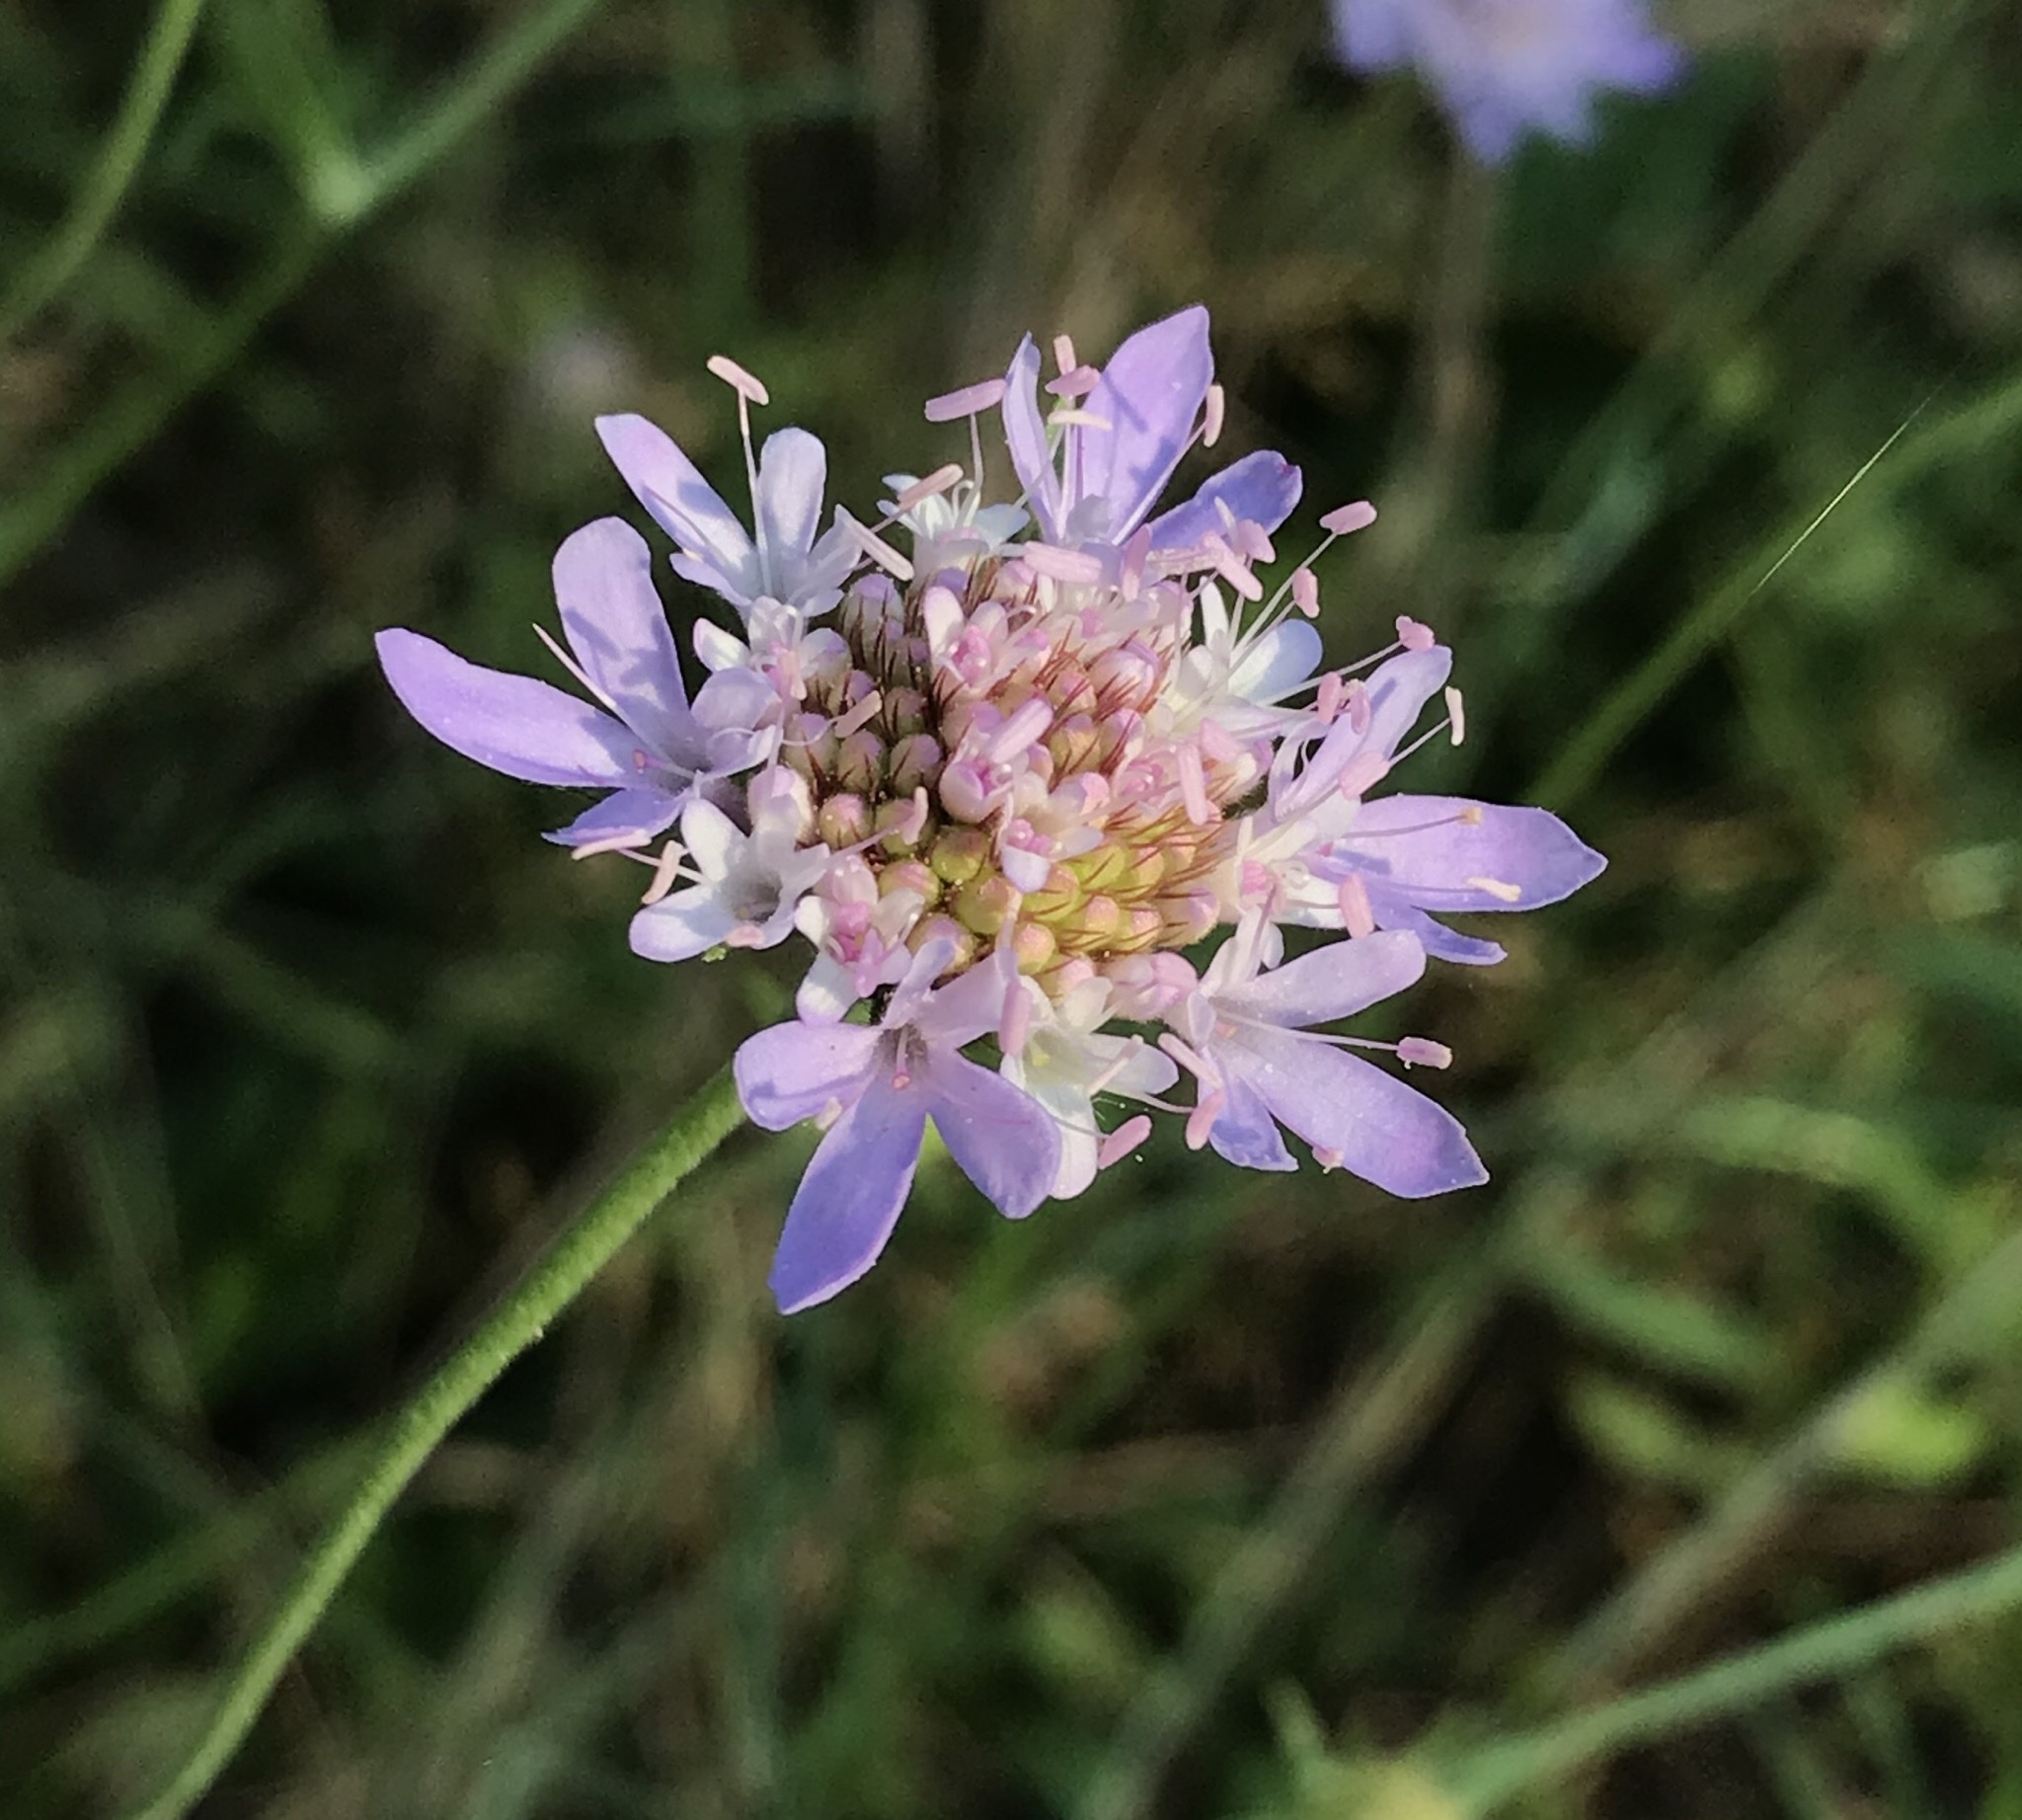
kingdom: Plantae
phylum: Tracheophyta
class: Magnoliopsida
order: Dipsacales
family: Caprifoliaceae
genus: Sixalix
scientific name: Sixalix atropurpurea
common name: Sweet scabious
